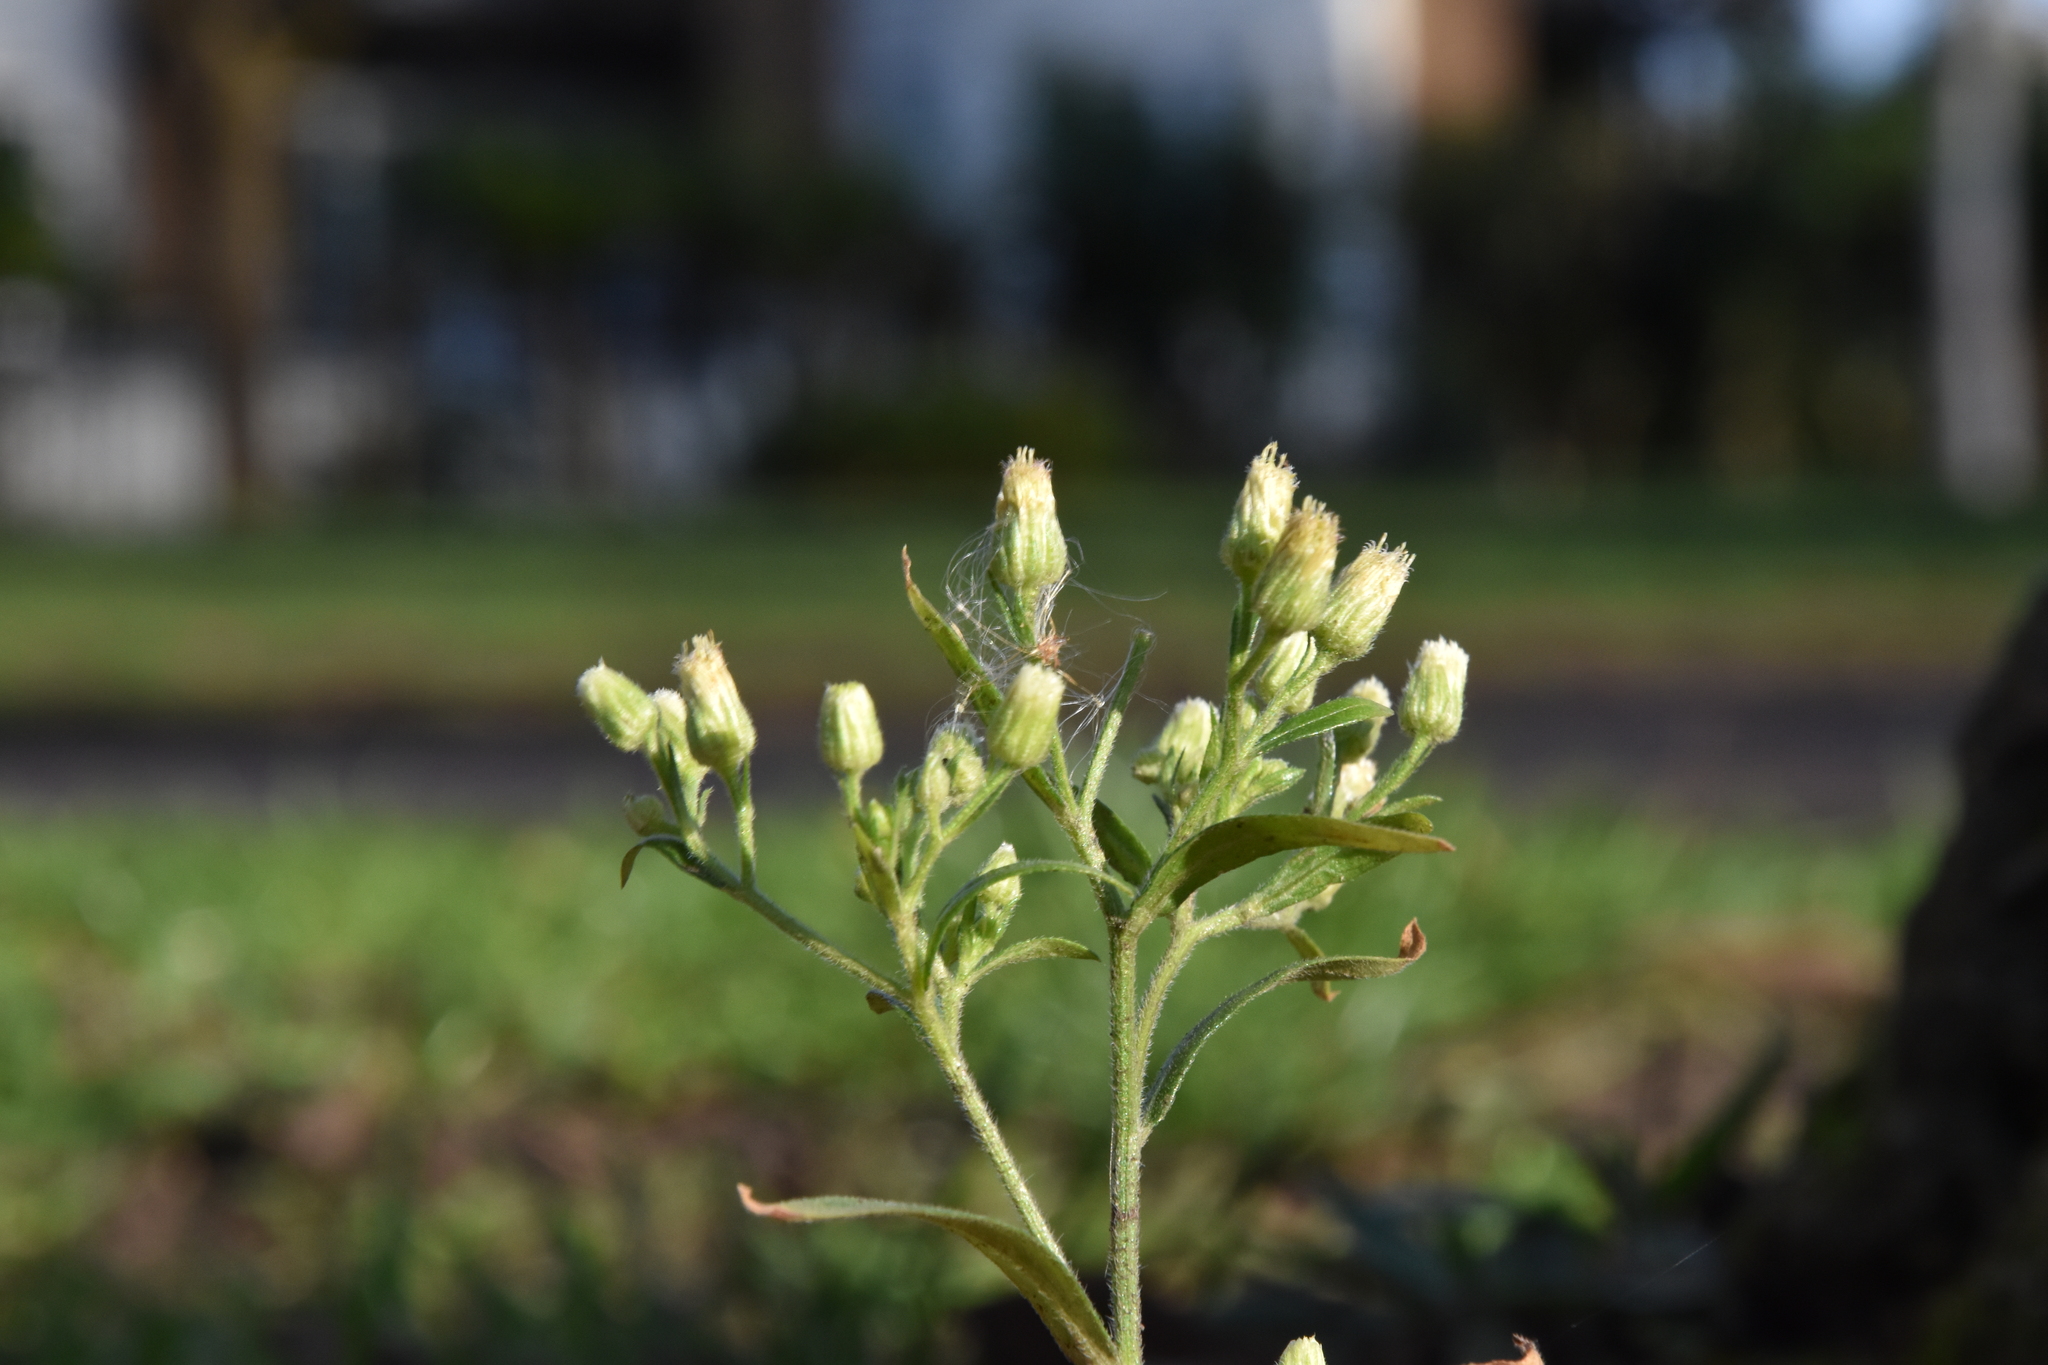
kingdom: Plantae
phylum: Tracheophyta
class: Magnoliopsida
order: Asterales
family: Asteraceae
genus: Erigeron
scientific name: Erigeron sumatrensis
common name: Daisy
